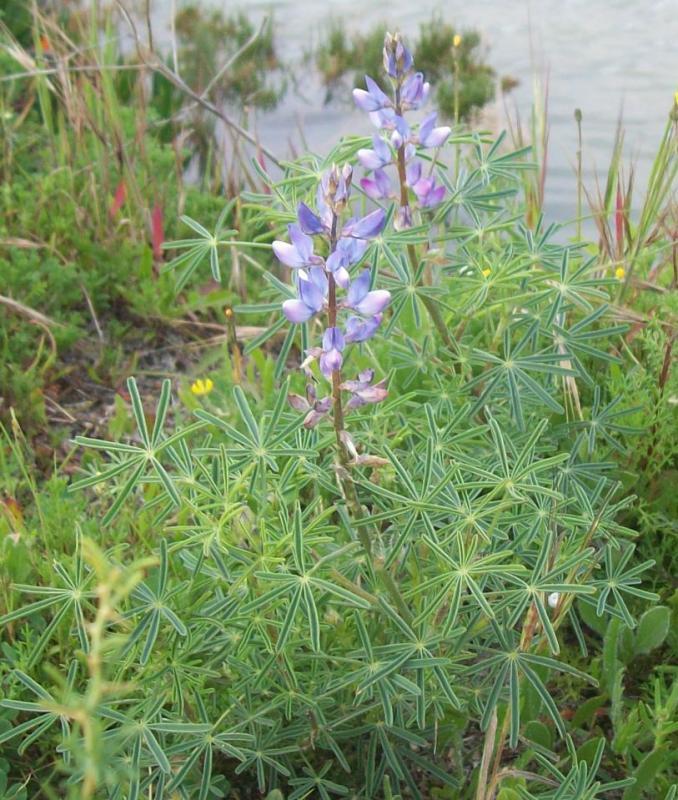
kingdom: Plantae
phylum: Tracheophyta
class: Magnoliopsida
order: Fabales
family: Fabaceae
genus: Lupinus
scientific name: Lupinus angustifolius
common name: Narrow-leaved lupin
